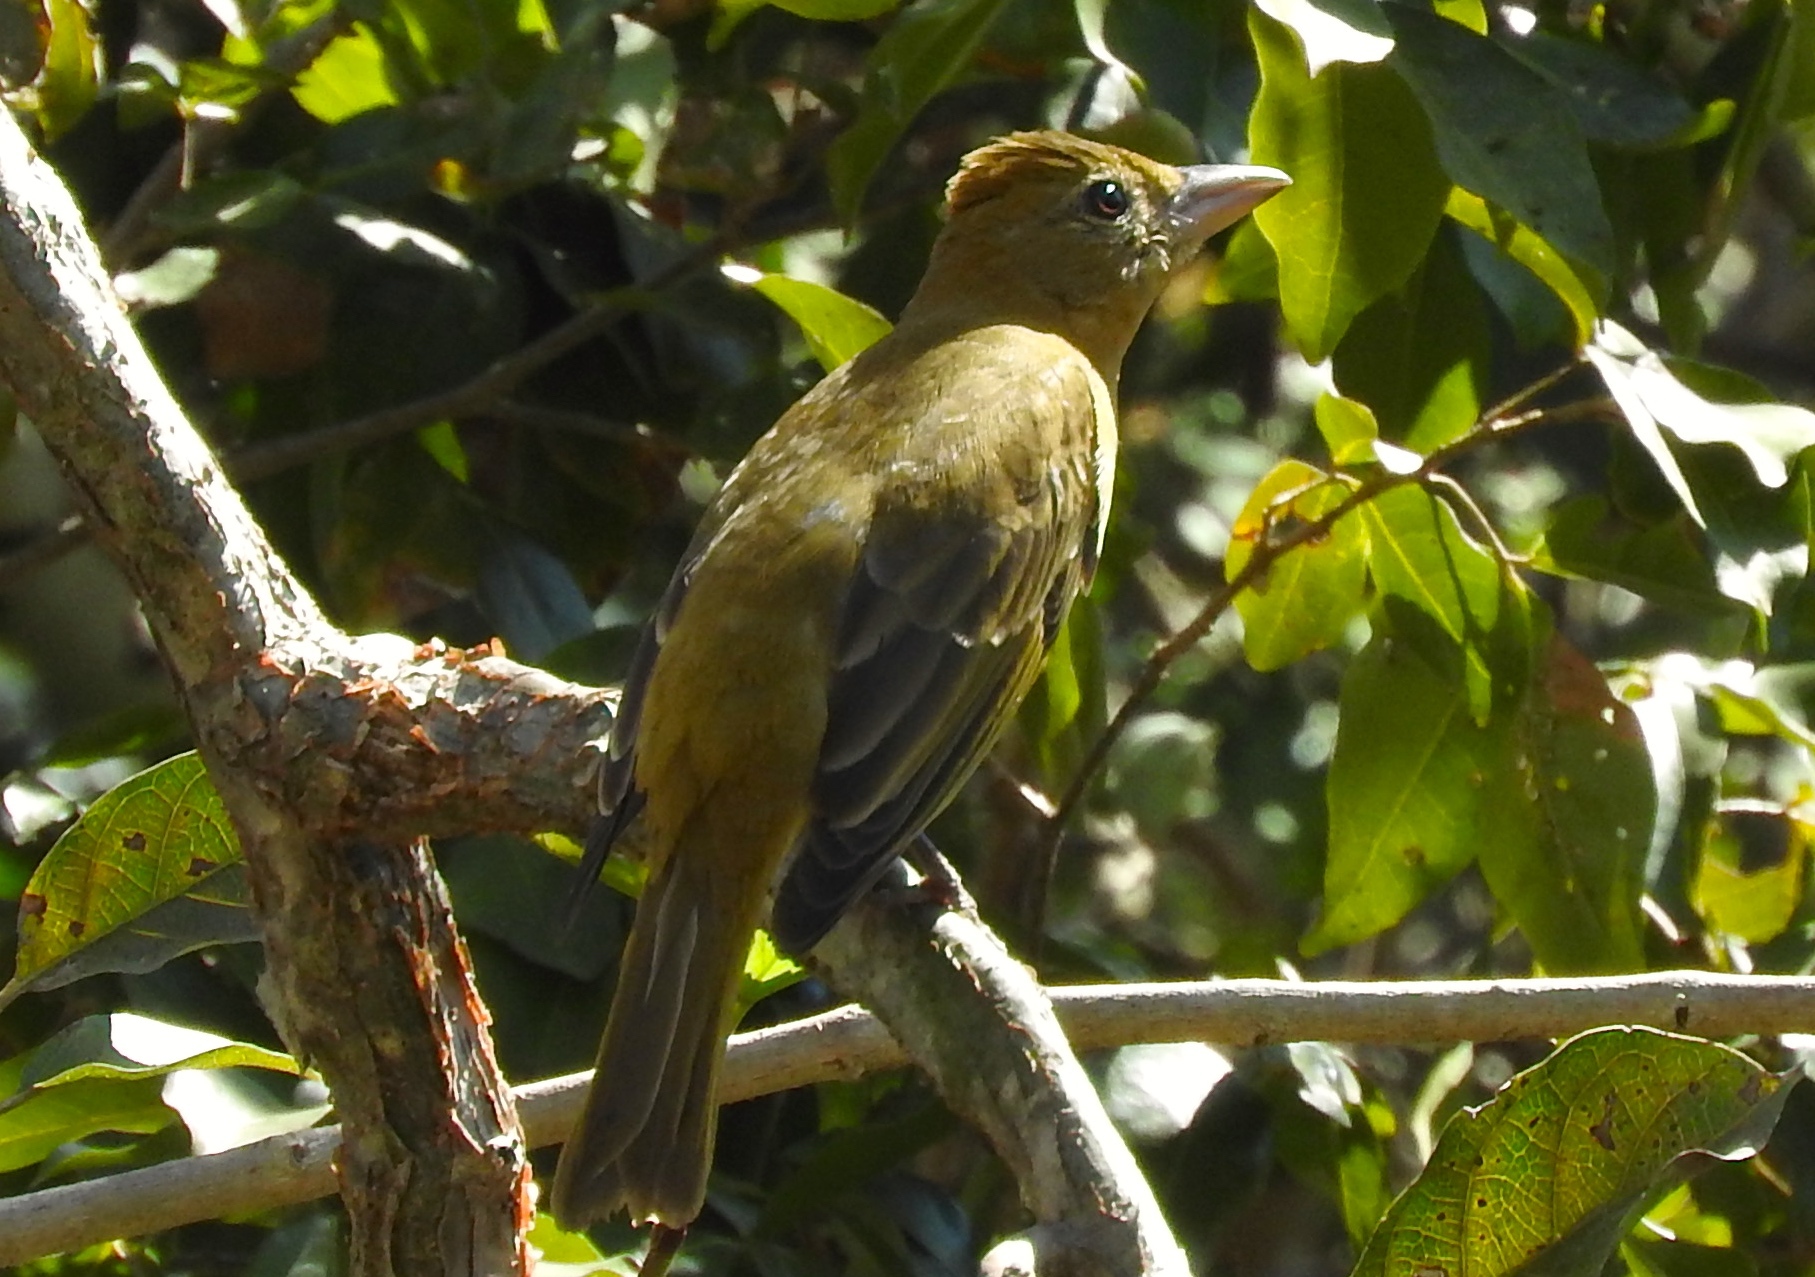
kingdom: Animalia
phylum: Chordata
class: Aves
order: Passeriformes
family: Cardinalidae
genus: Piranga
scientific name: Piranga rubra
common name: Summer tanager
